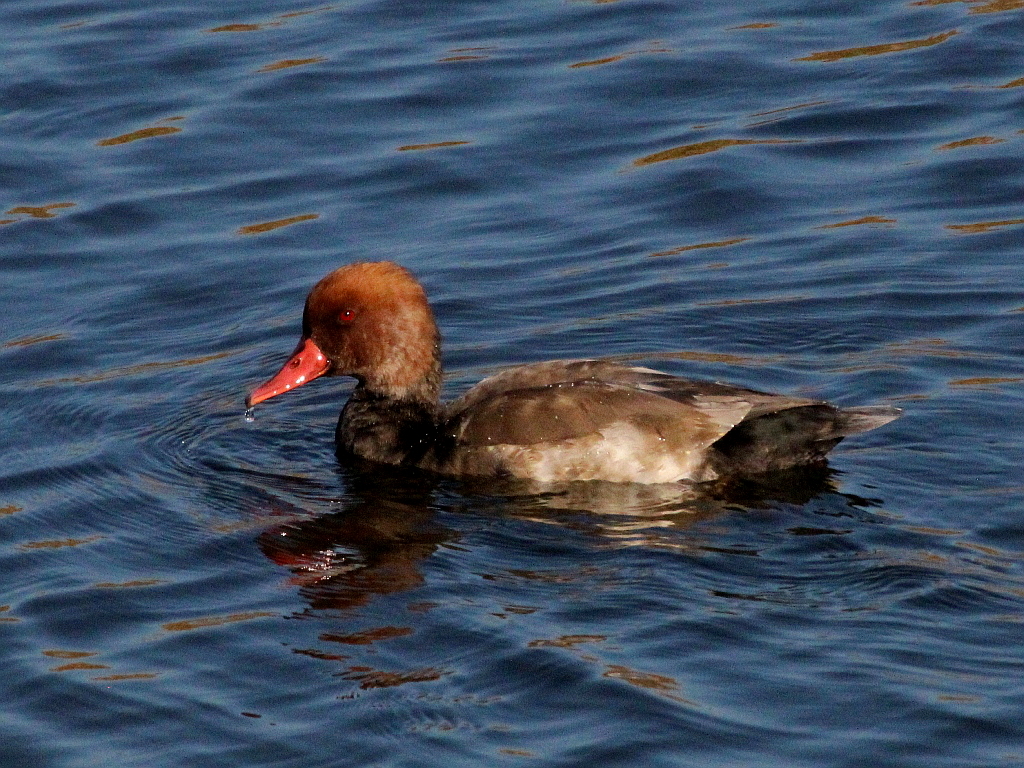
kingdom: Animalia
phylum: Chordata
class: Aves
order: Anseriformes
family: Anatidae
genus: Netta
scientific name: Netta rufina
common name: Red-crested pochard
